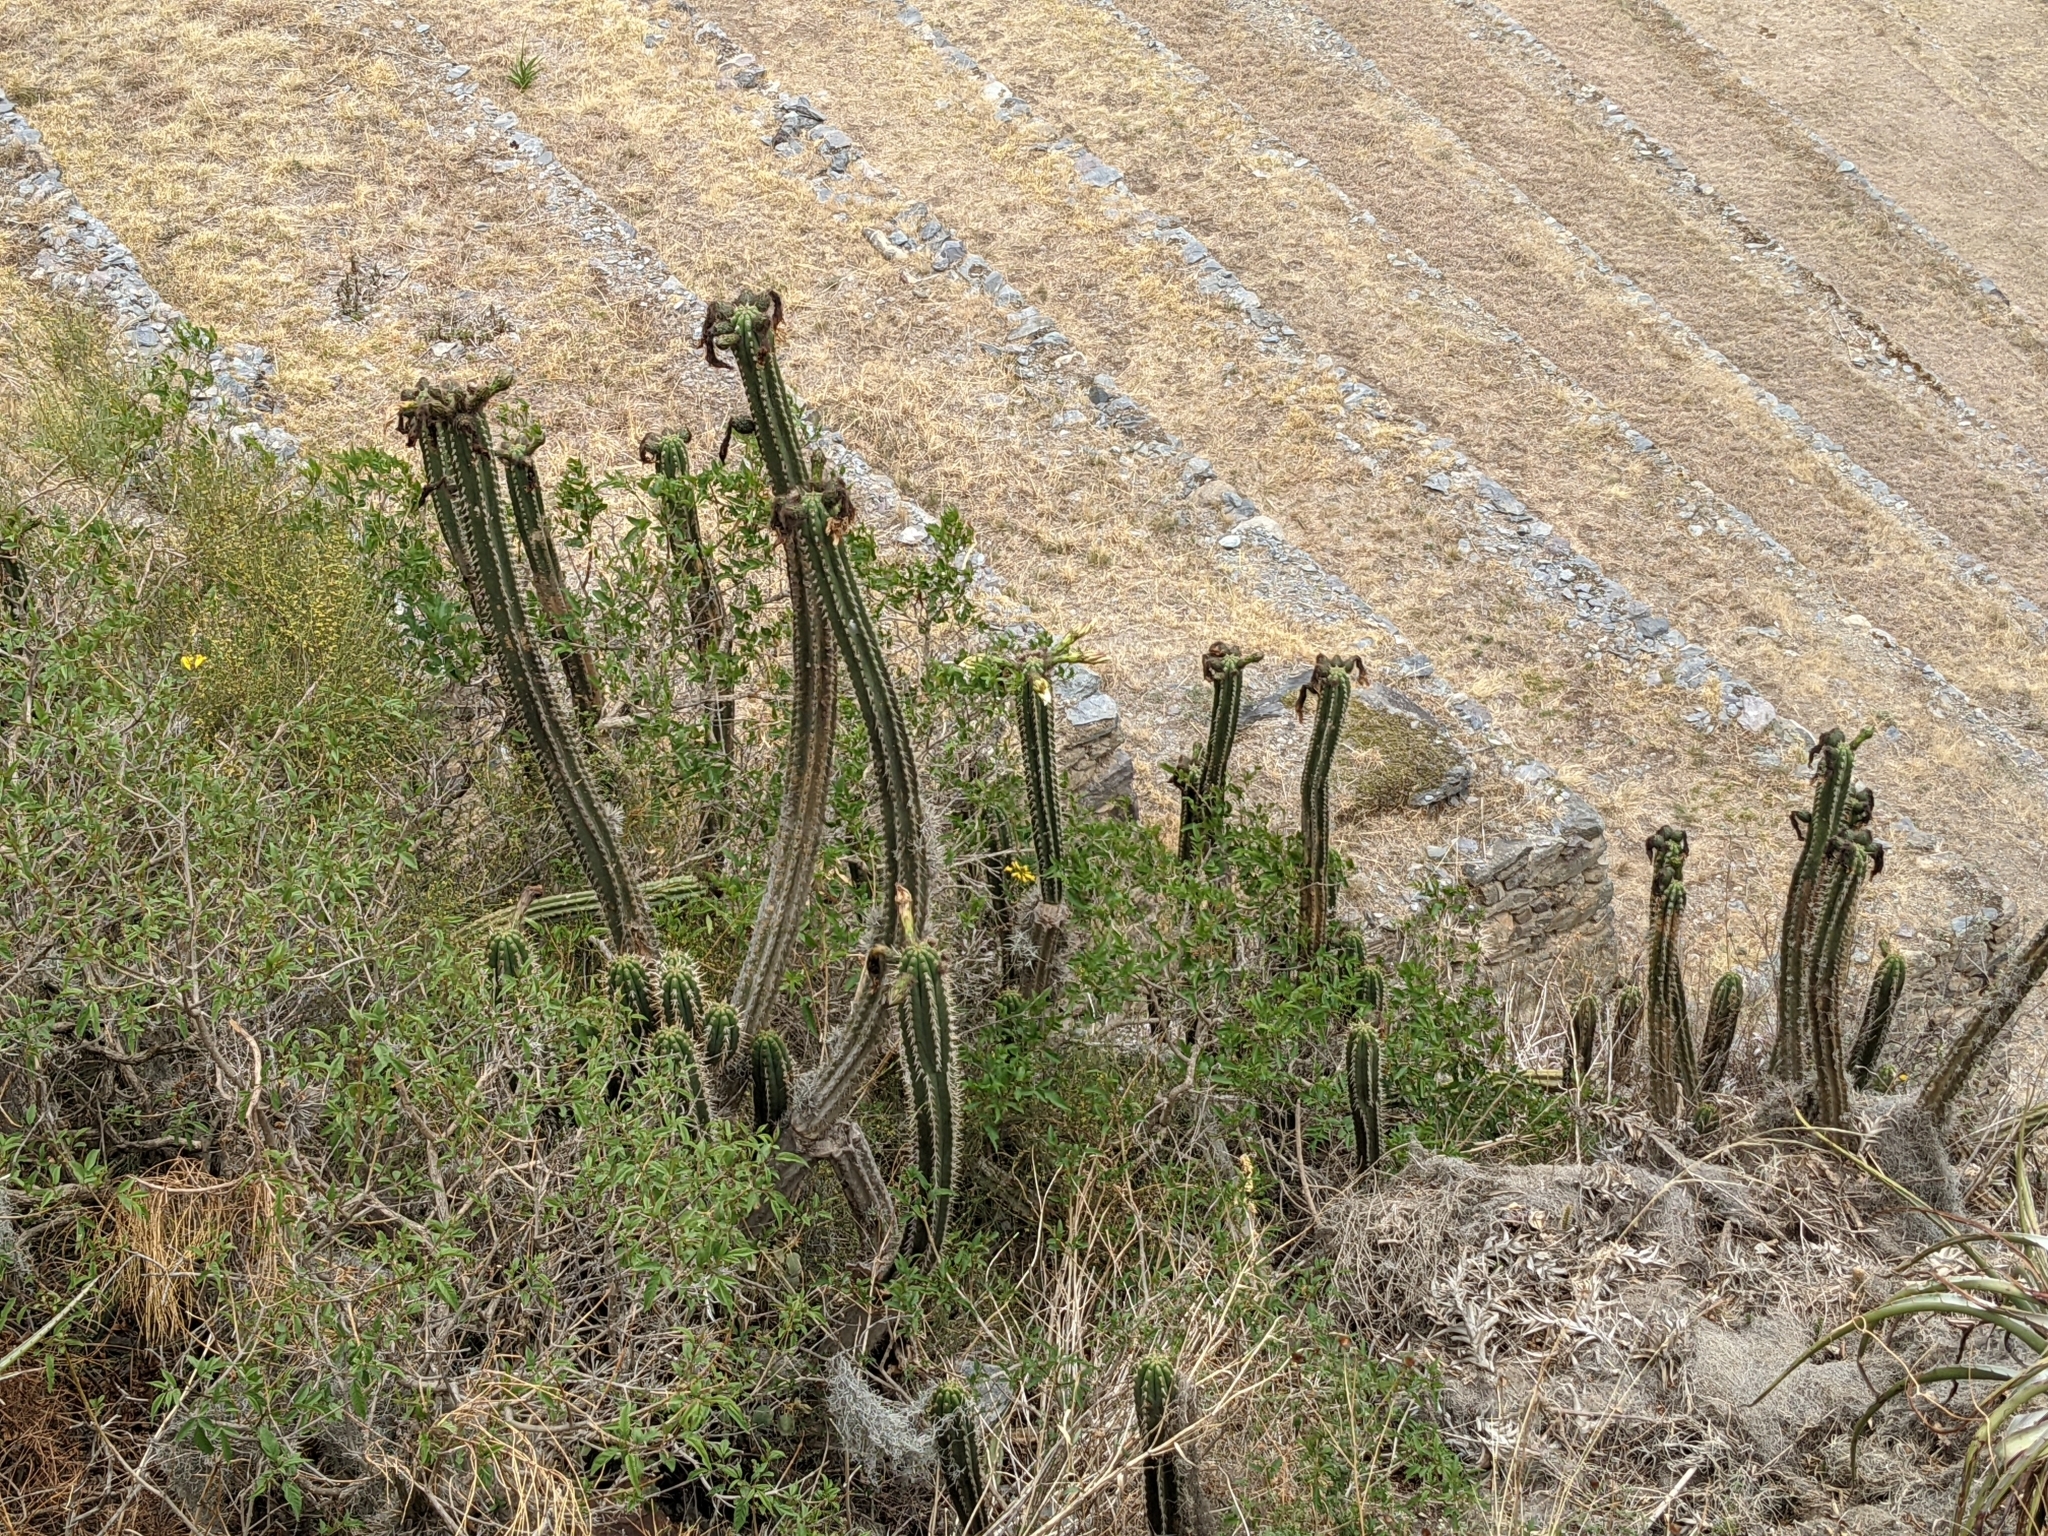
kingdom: Plantae
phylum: Tracheophyta
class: Magnoliopsida
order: Caryophyllales
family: Cactaceae
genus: Trichocereus
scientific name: Trichocereus cuzcoensis
